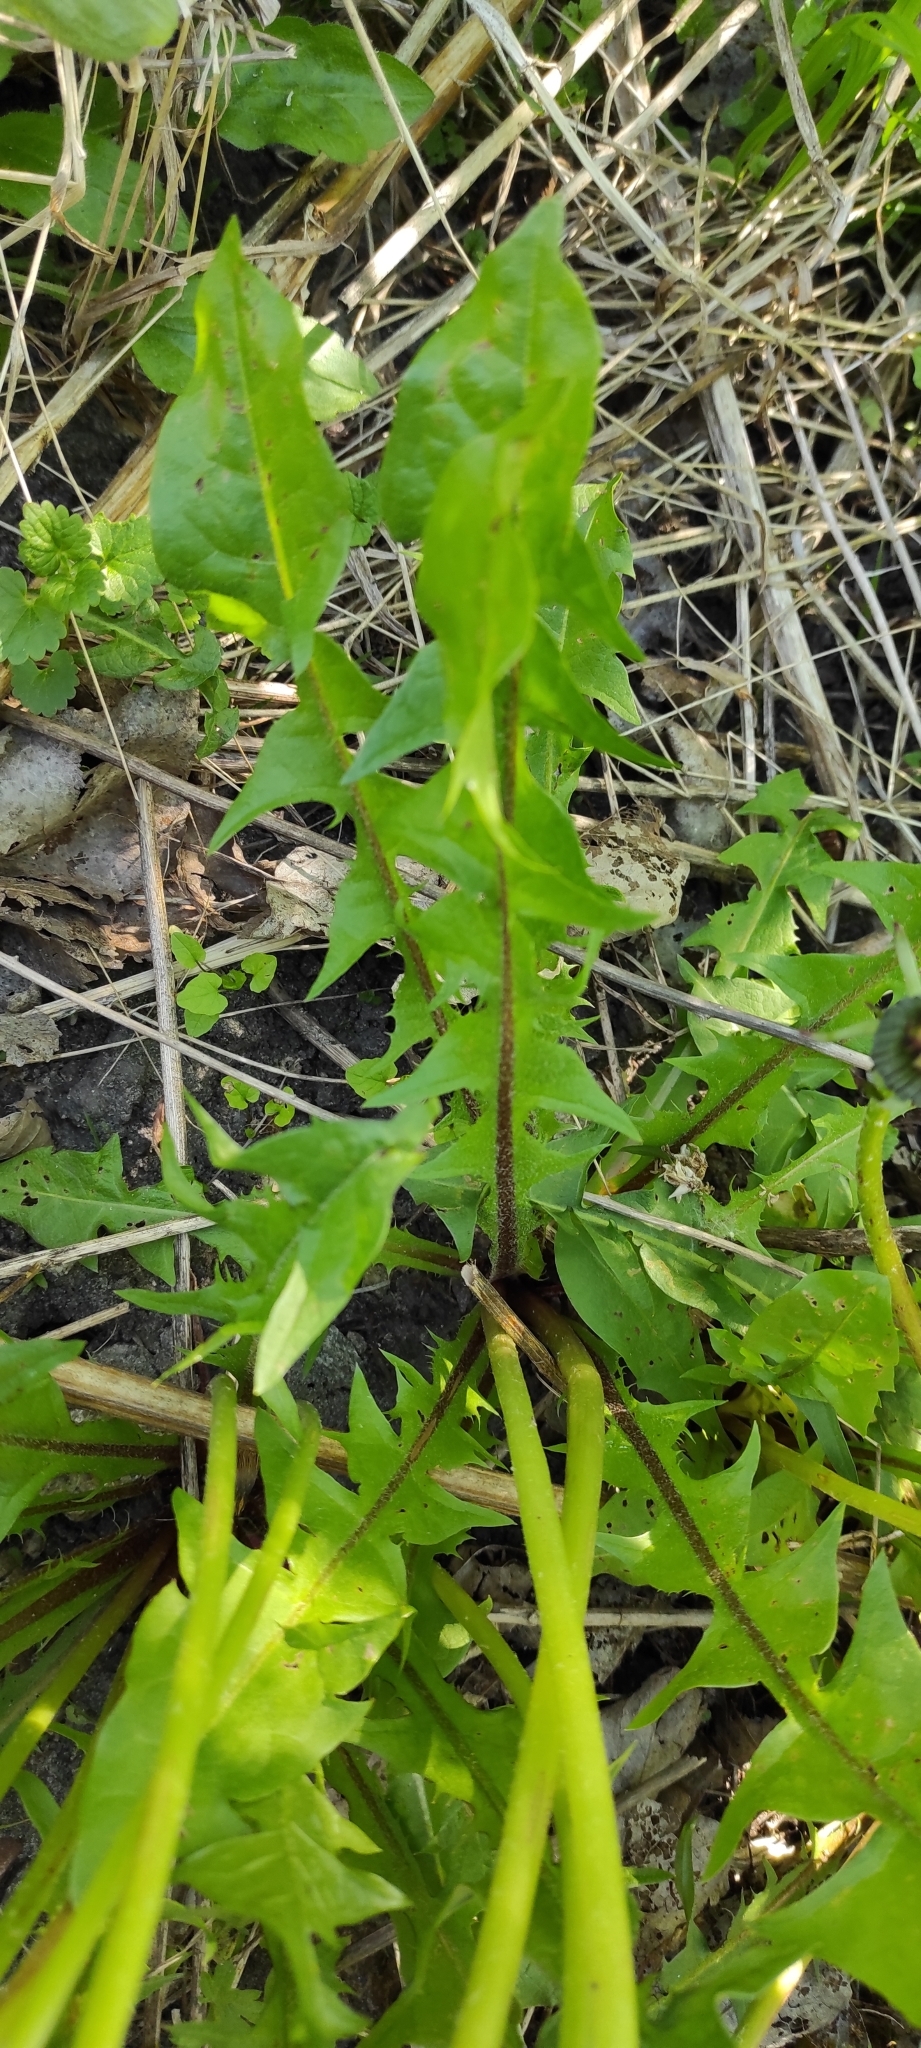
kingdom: Plantae
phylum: Tracheophyta
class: Magnoliopsida
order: Asterales
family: Asteraceae
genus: Taraxacum
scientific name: Taraxacum officinale
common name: Common dandelion
